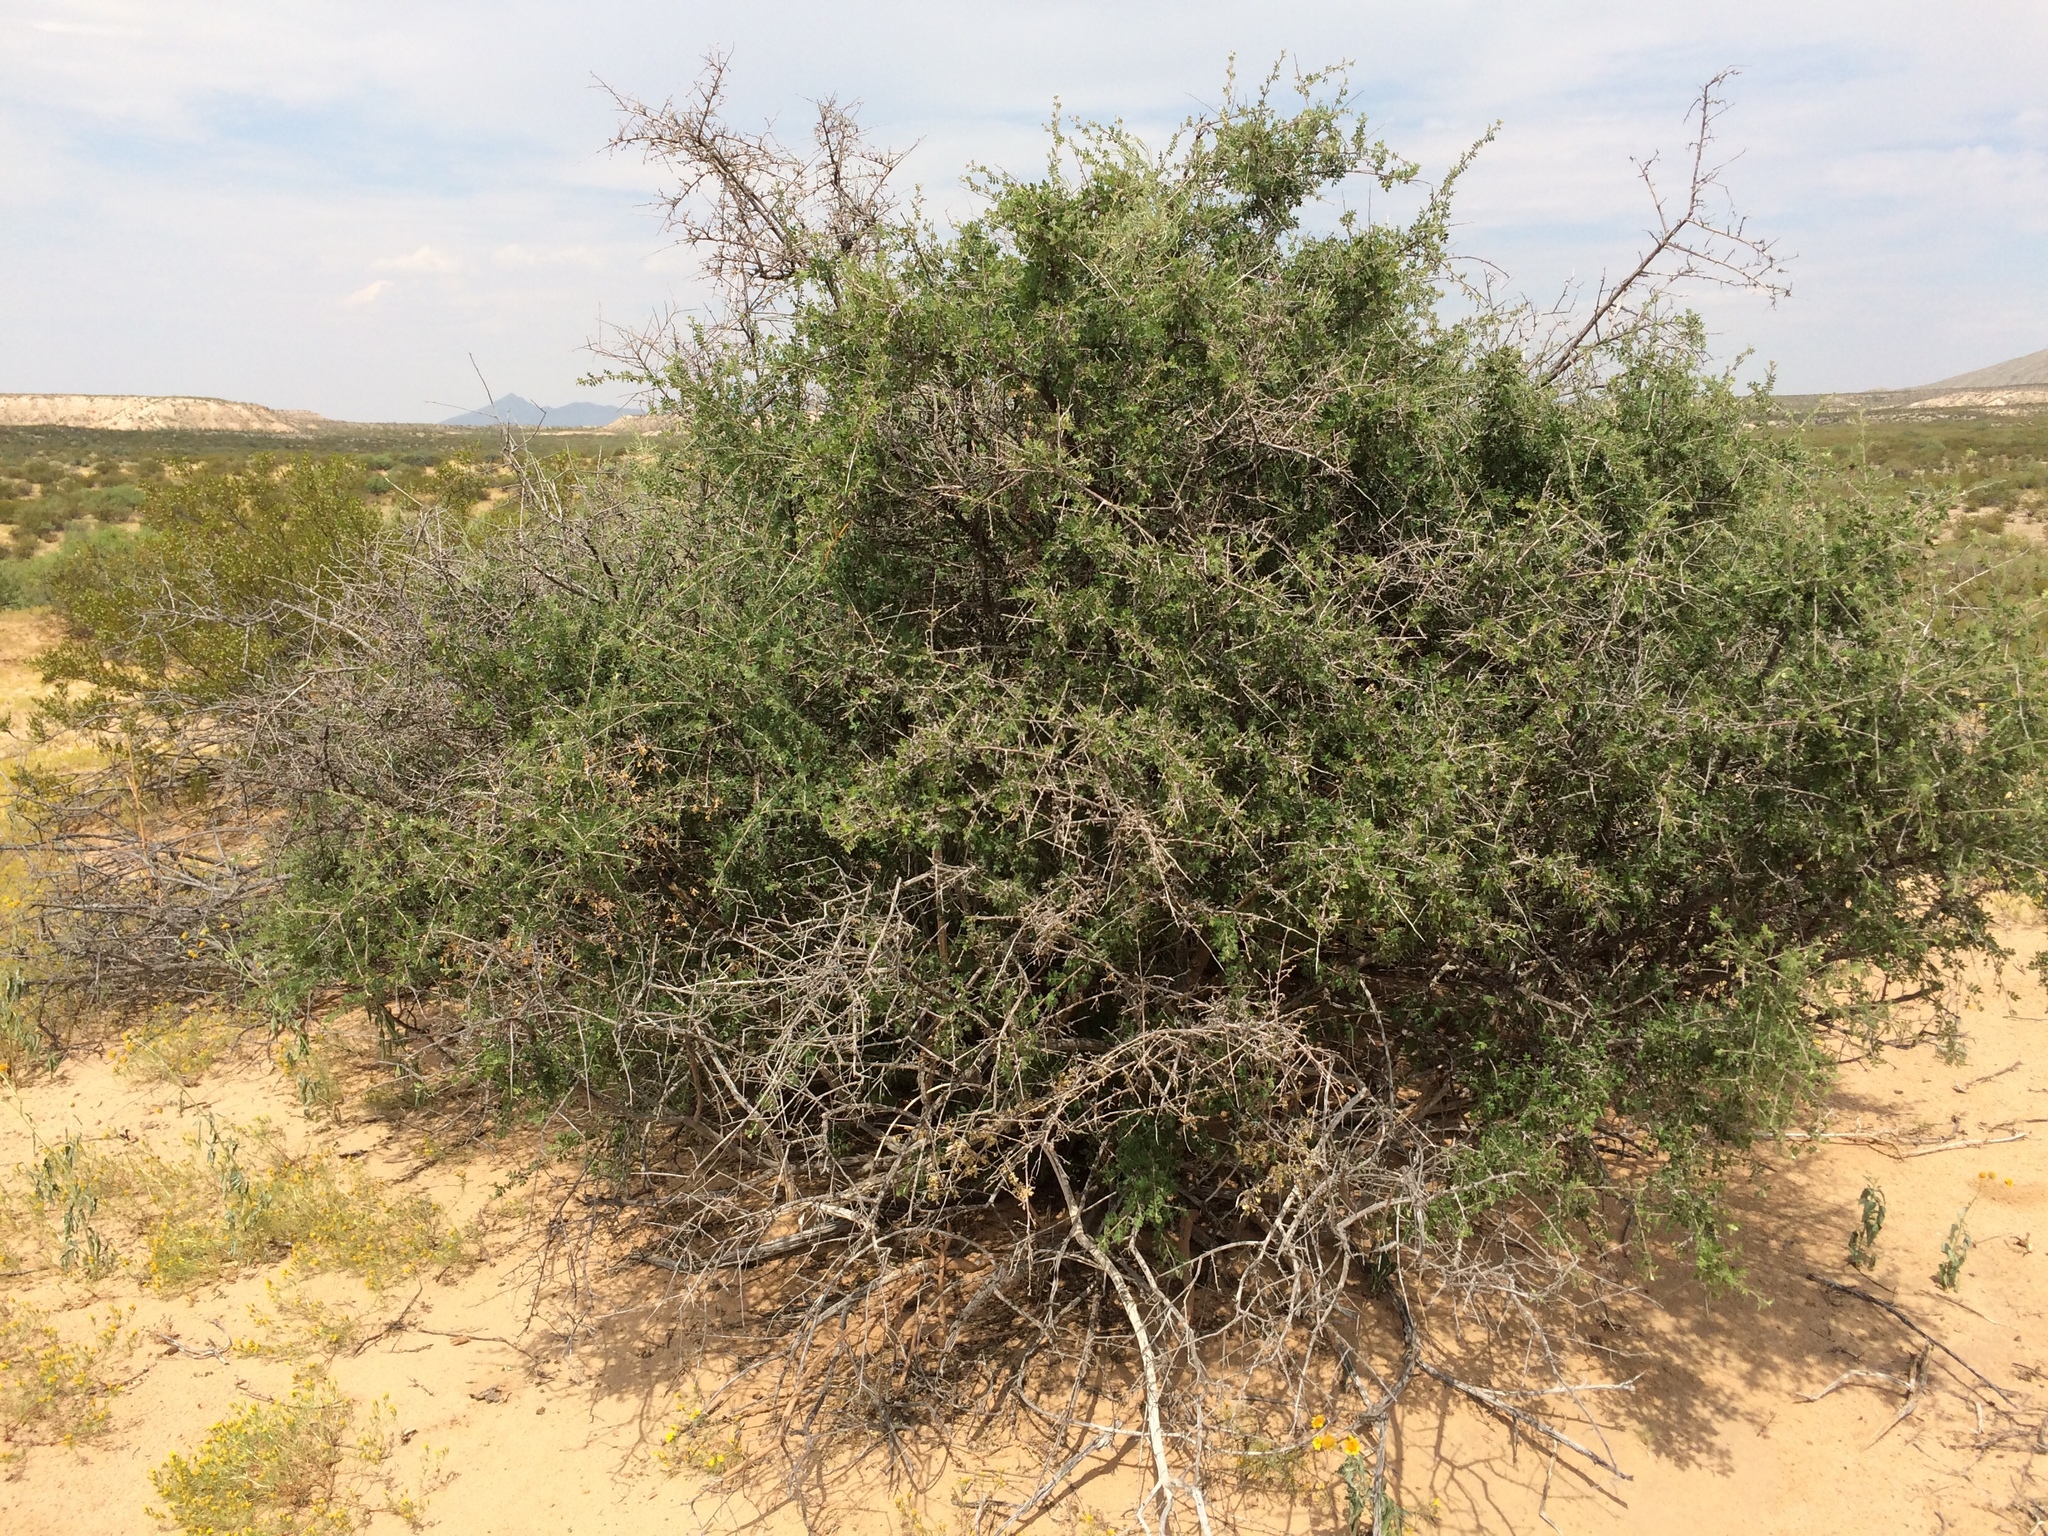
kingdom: Plantae
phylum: Tracheophyta
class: Magnoliopsida
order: Sapindales
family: Anacardiaceae
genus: Rhus
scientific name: Rhus microphylla
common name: Desert sumac
